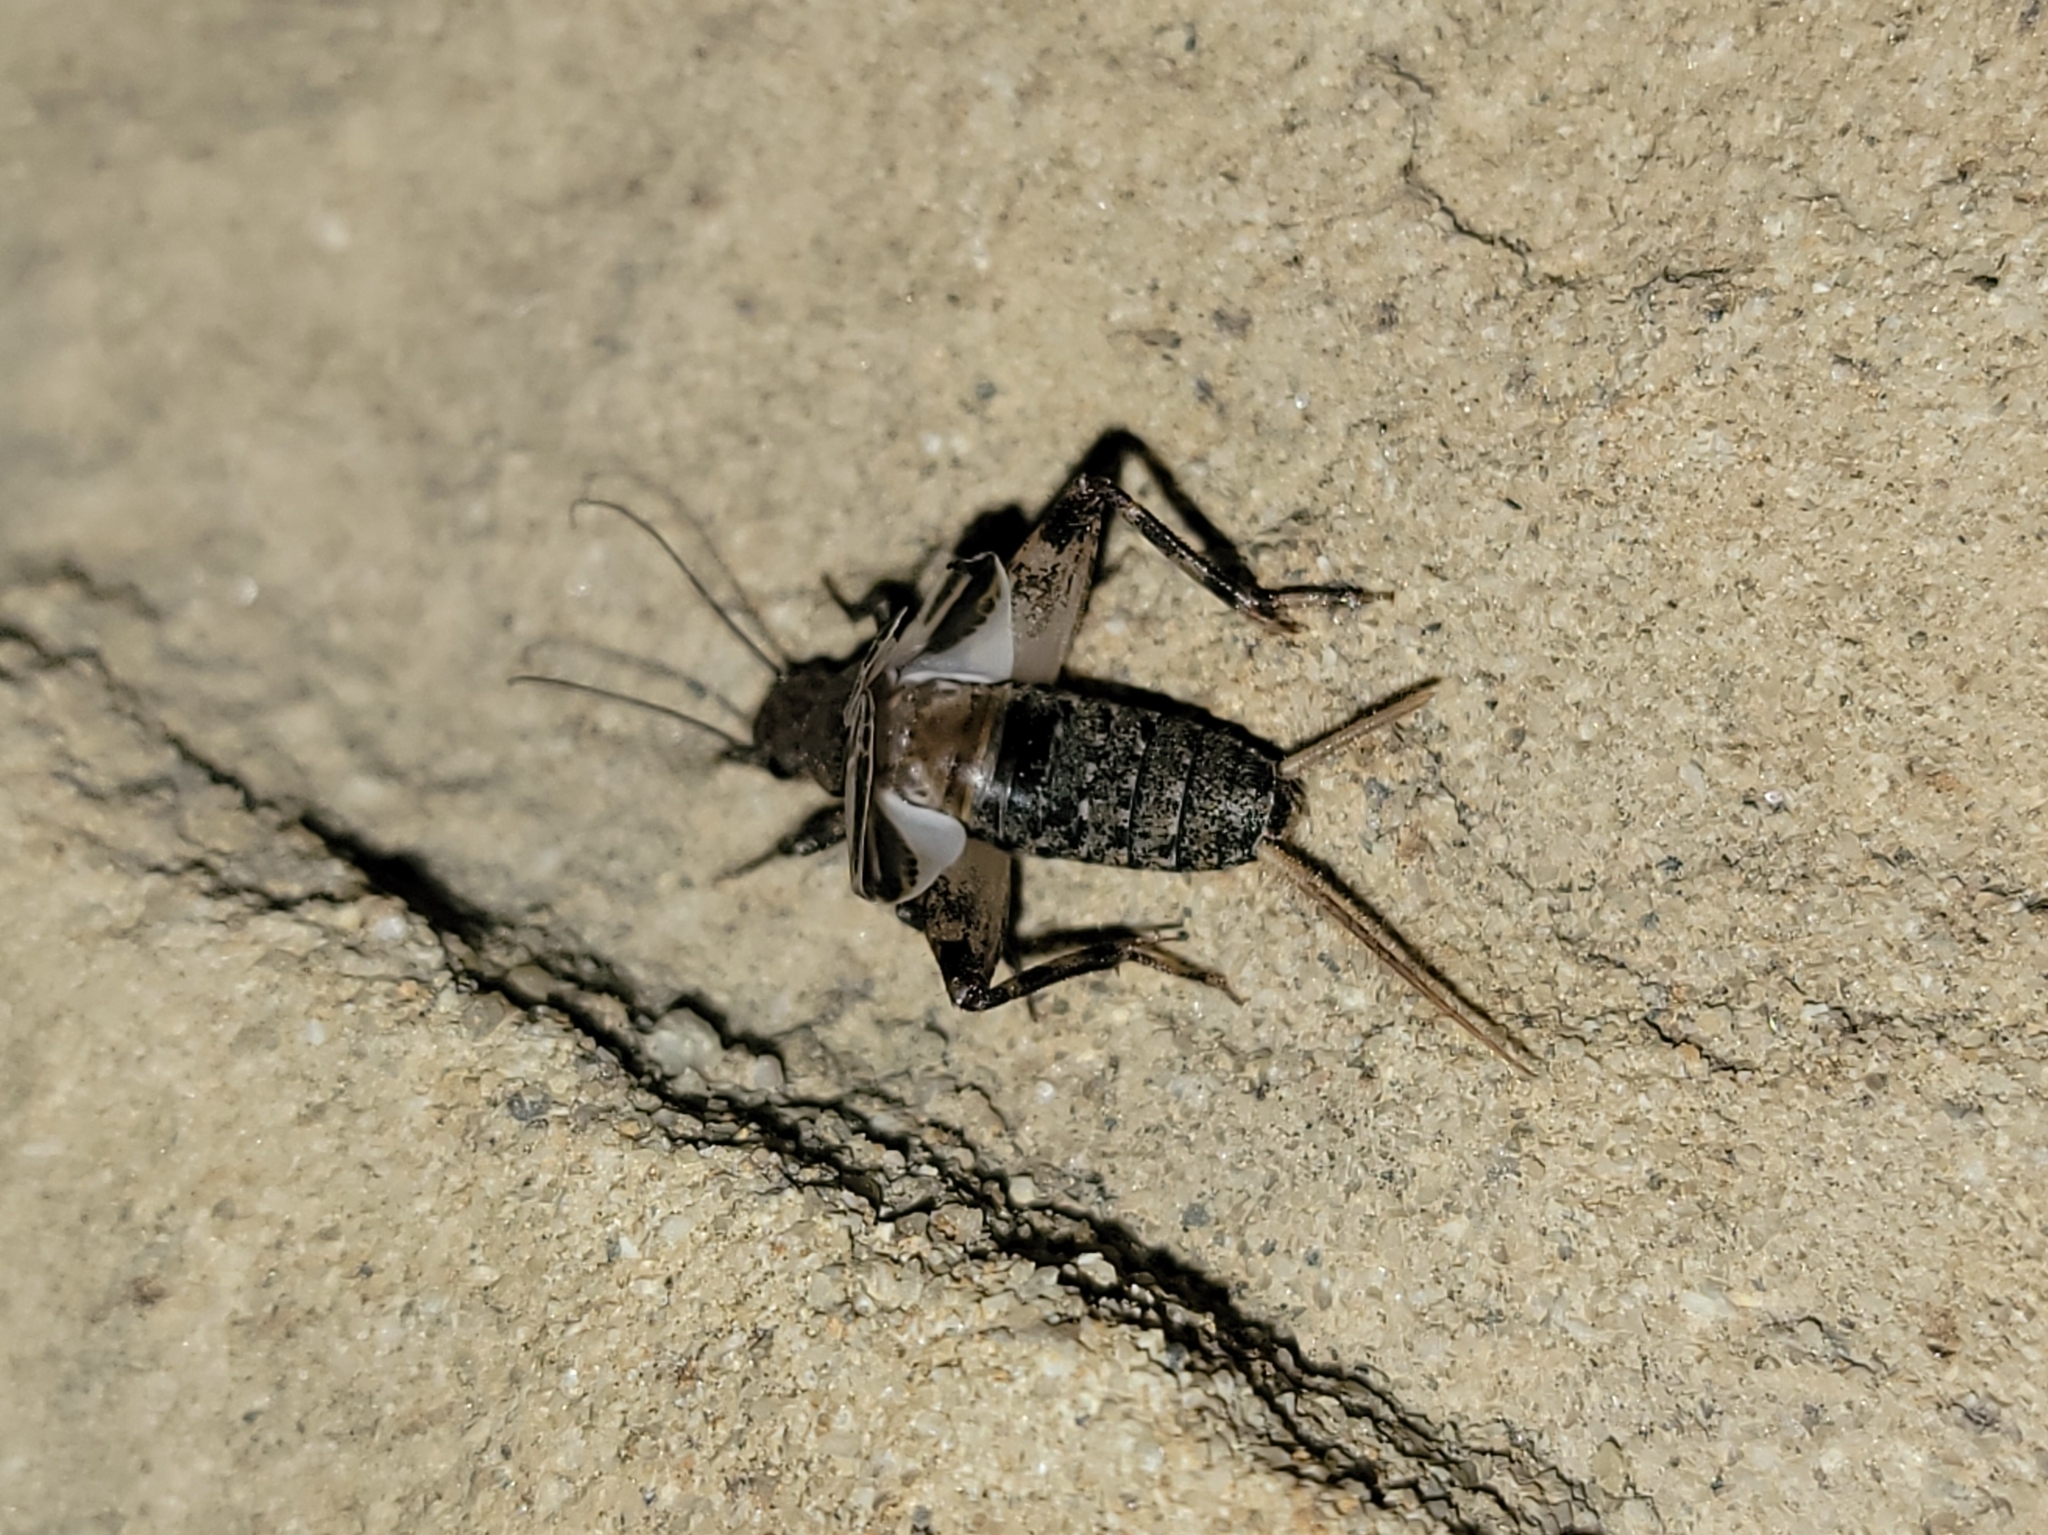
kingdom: Animalia
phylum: Arthropoda
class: Insecta
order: Orthoptera
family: Mogoplistidae
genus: Hoplosphyrum
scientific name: Hoplosphyrum boreale
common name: Long-winged scaly cricket
